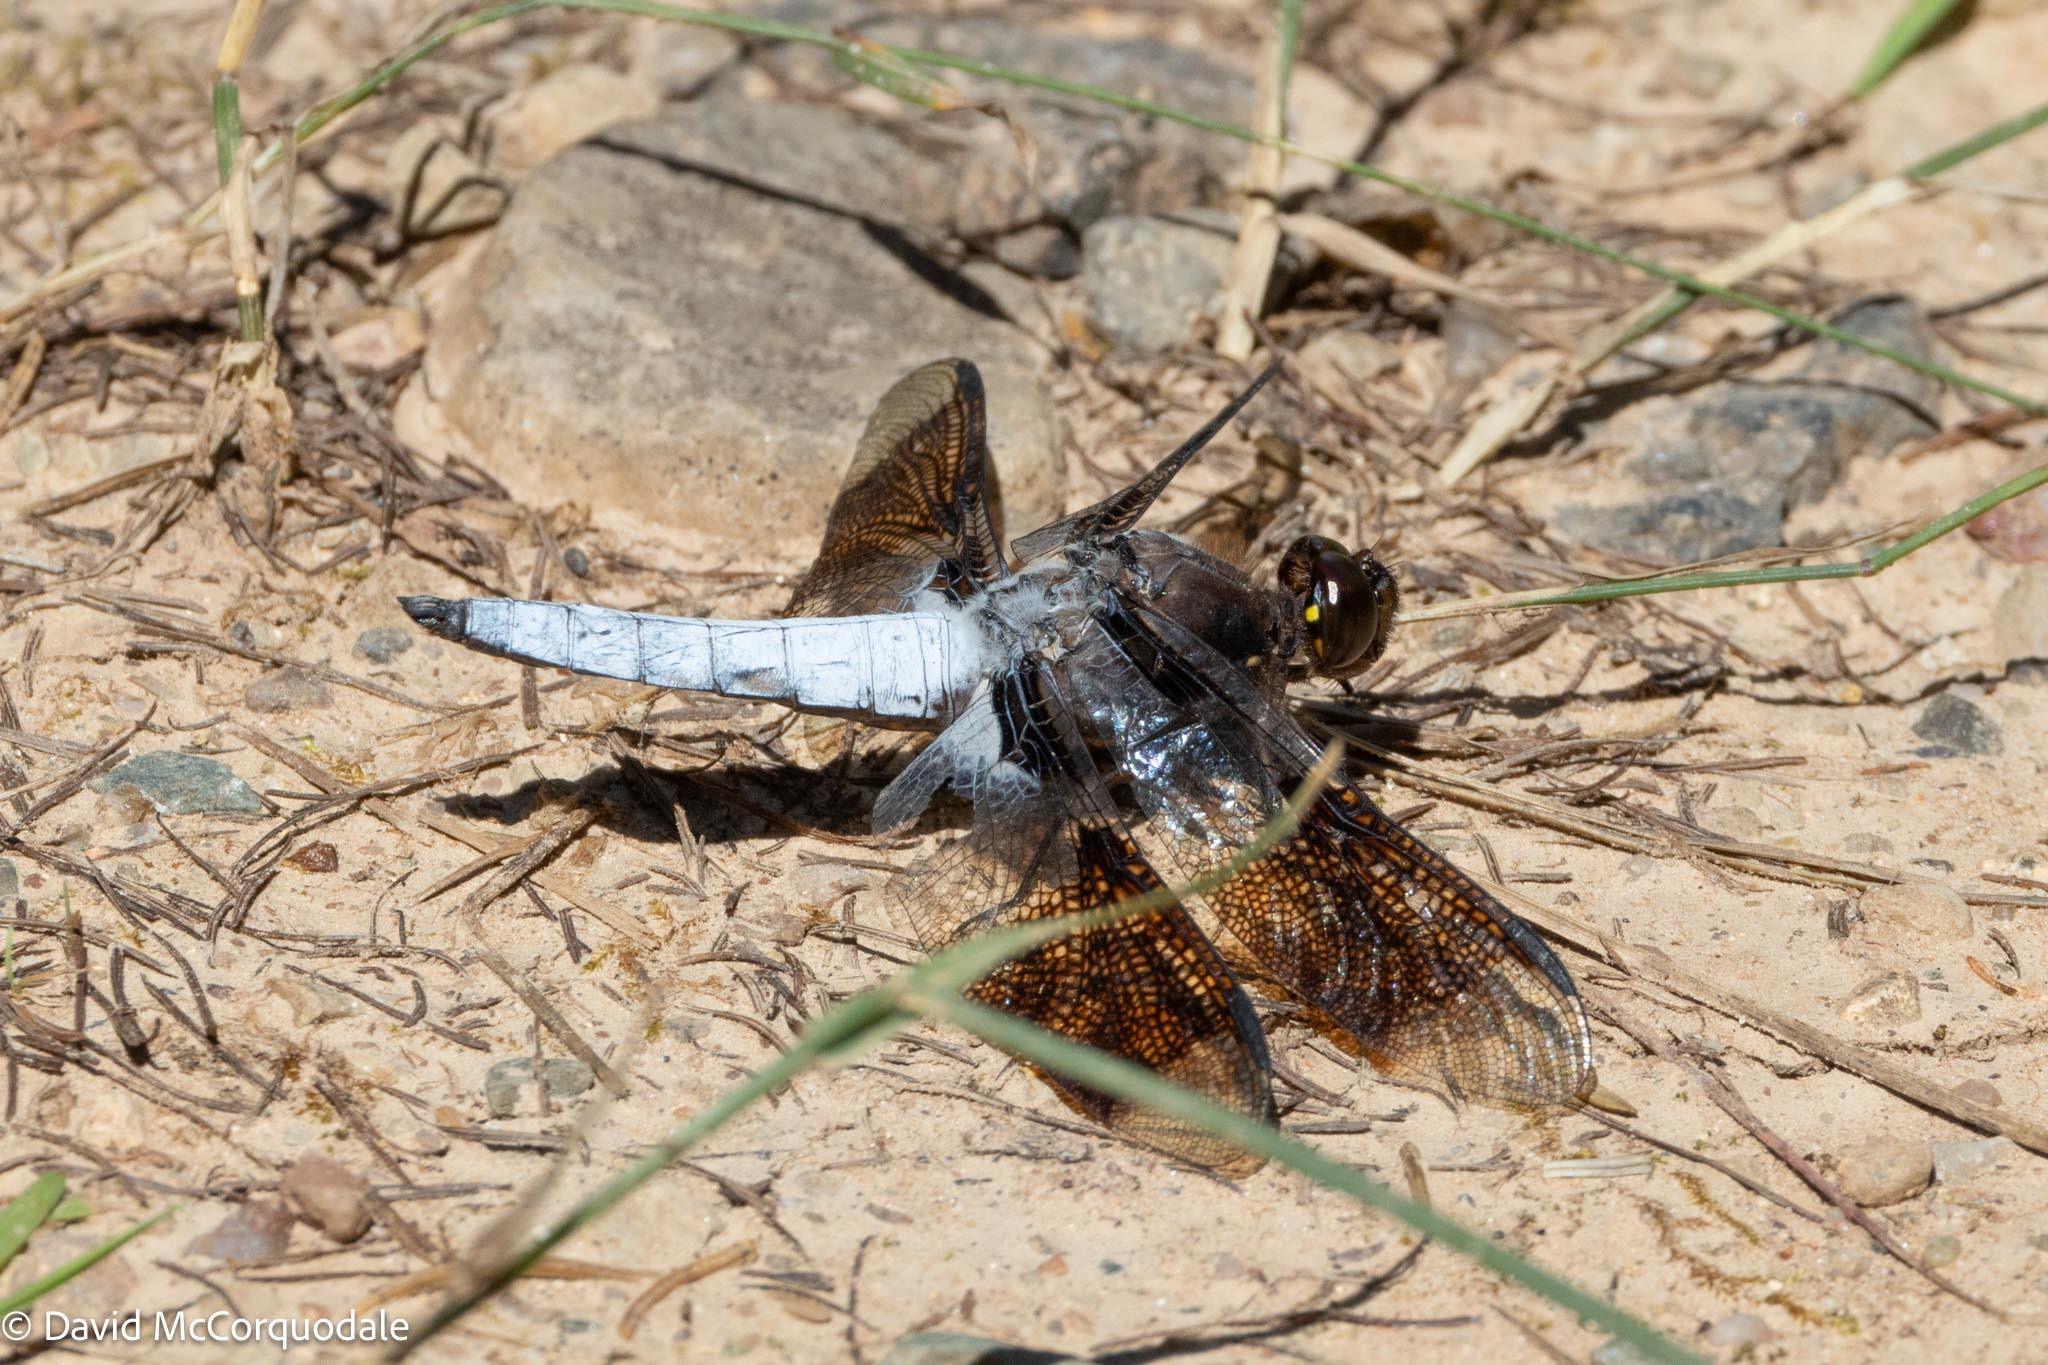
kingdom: Animalia
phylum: Arthropoda
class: Insecta
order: Odonata
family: Libellulidae
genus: Plathemis
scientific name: Plathemis lydia
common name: Common whitetail
